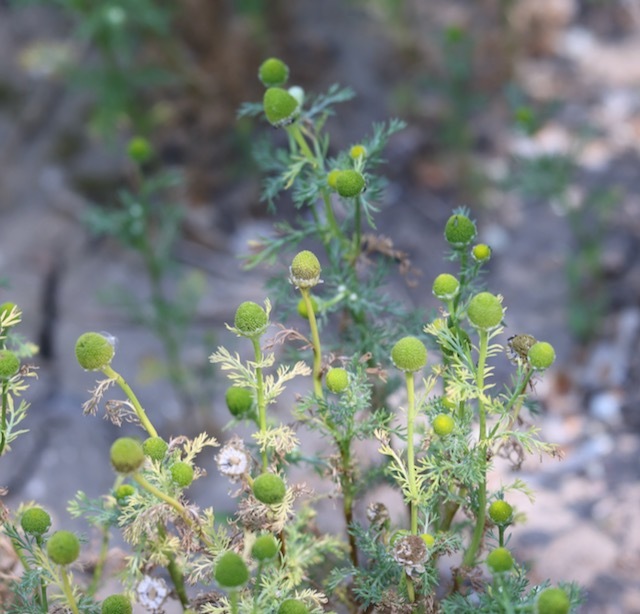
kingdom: Plantae
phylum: Tracheophyta
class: Magnoliopsida
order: Asterales
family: Asteraceae
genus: Matricaria
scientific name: Matricaria discoidea
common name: Disc mayweed
